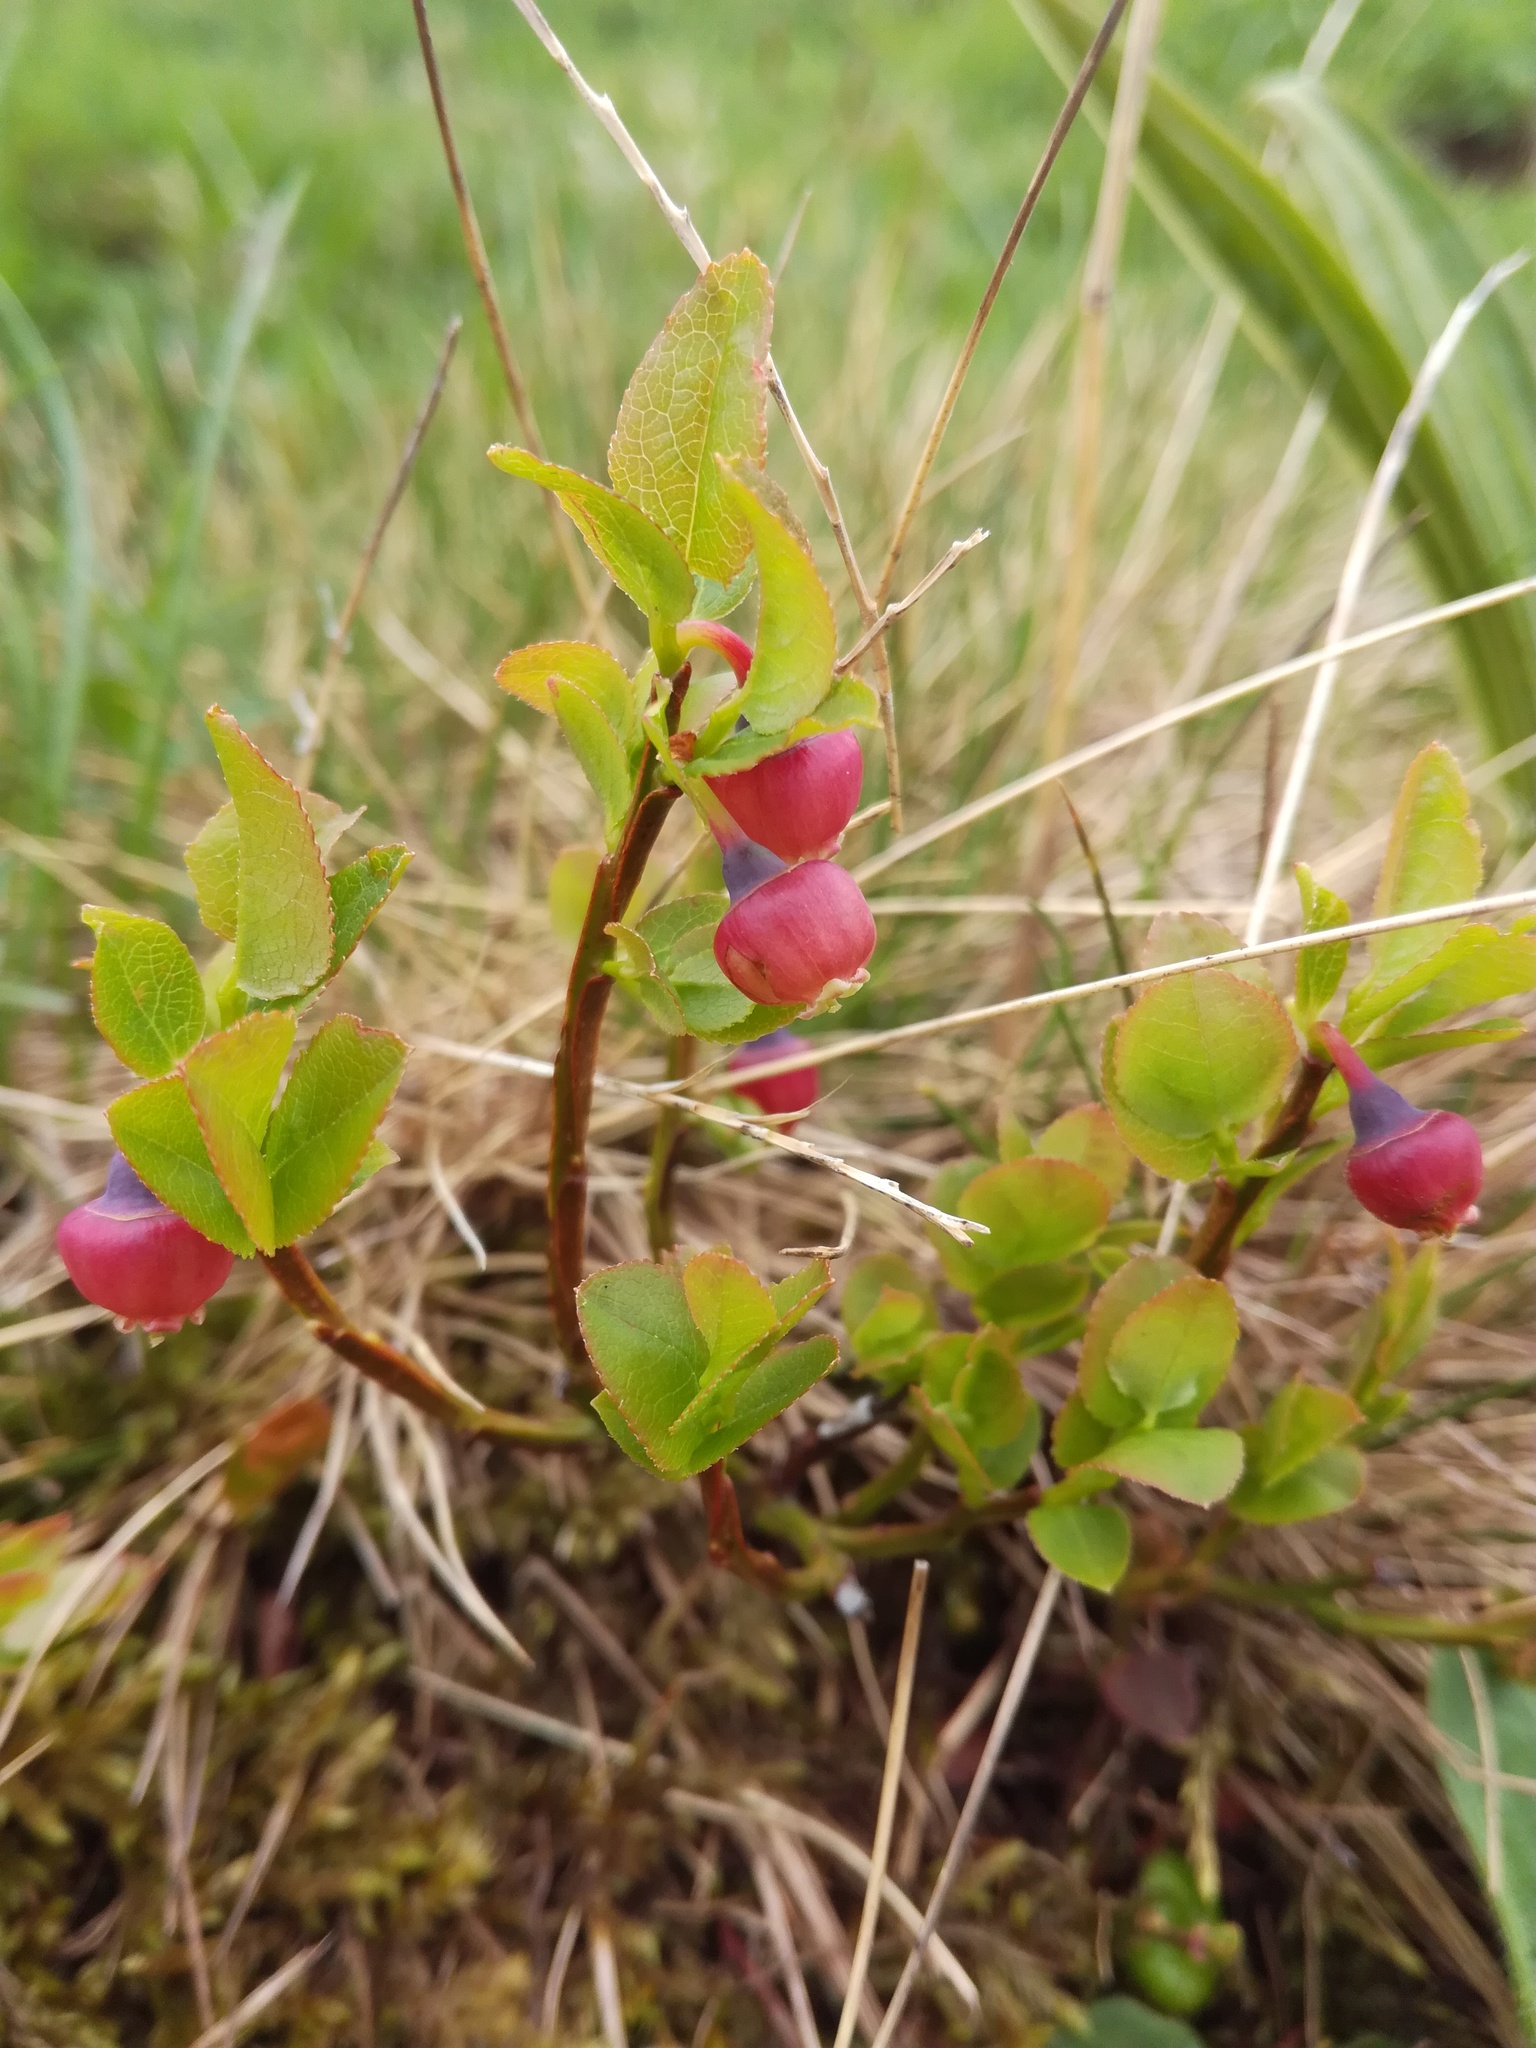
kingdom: Plantae
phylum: Tracheophyta
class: Magnoliopsida
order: Ericales
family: Ericaceae
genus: Vaccinium
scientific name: Vaccinium myrtillus
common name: Bilberry
